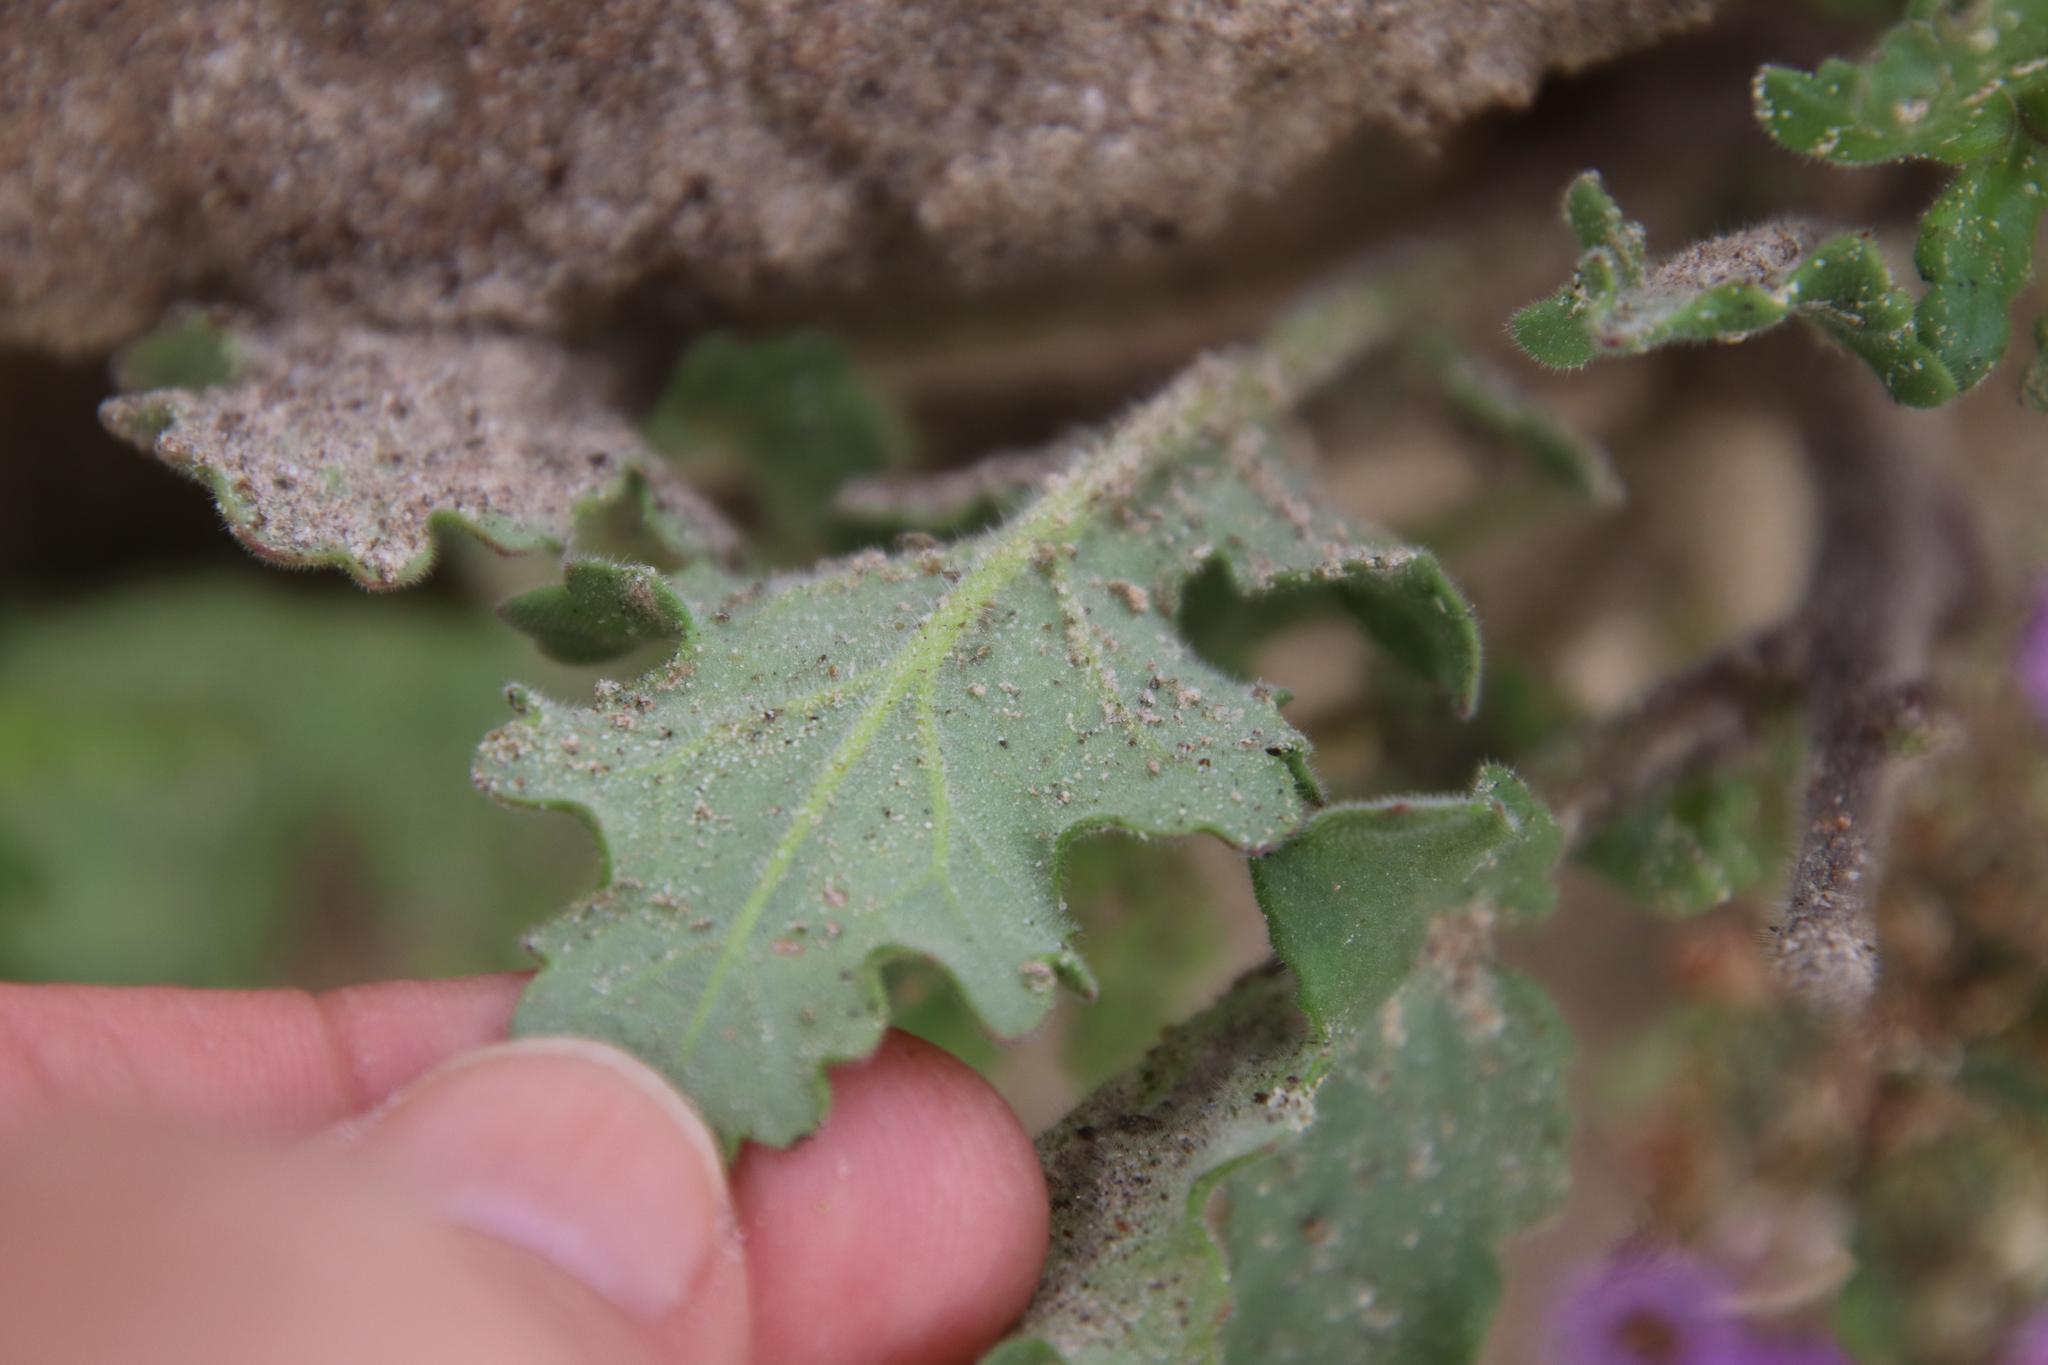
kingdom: Plantae
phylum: Tracheophyta
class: Magnoliopsida
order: Boraginales
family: Hydrophyllaceae
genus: Phacelia
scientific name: Phacelia crenulata
